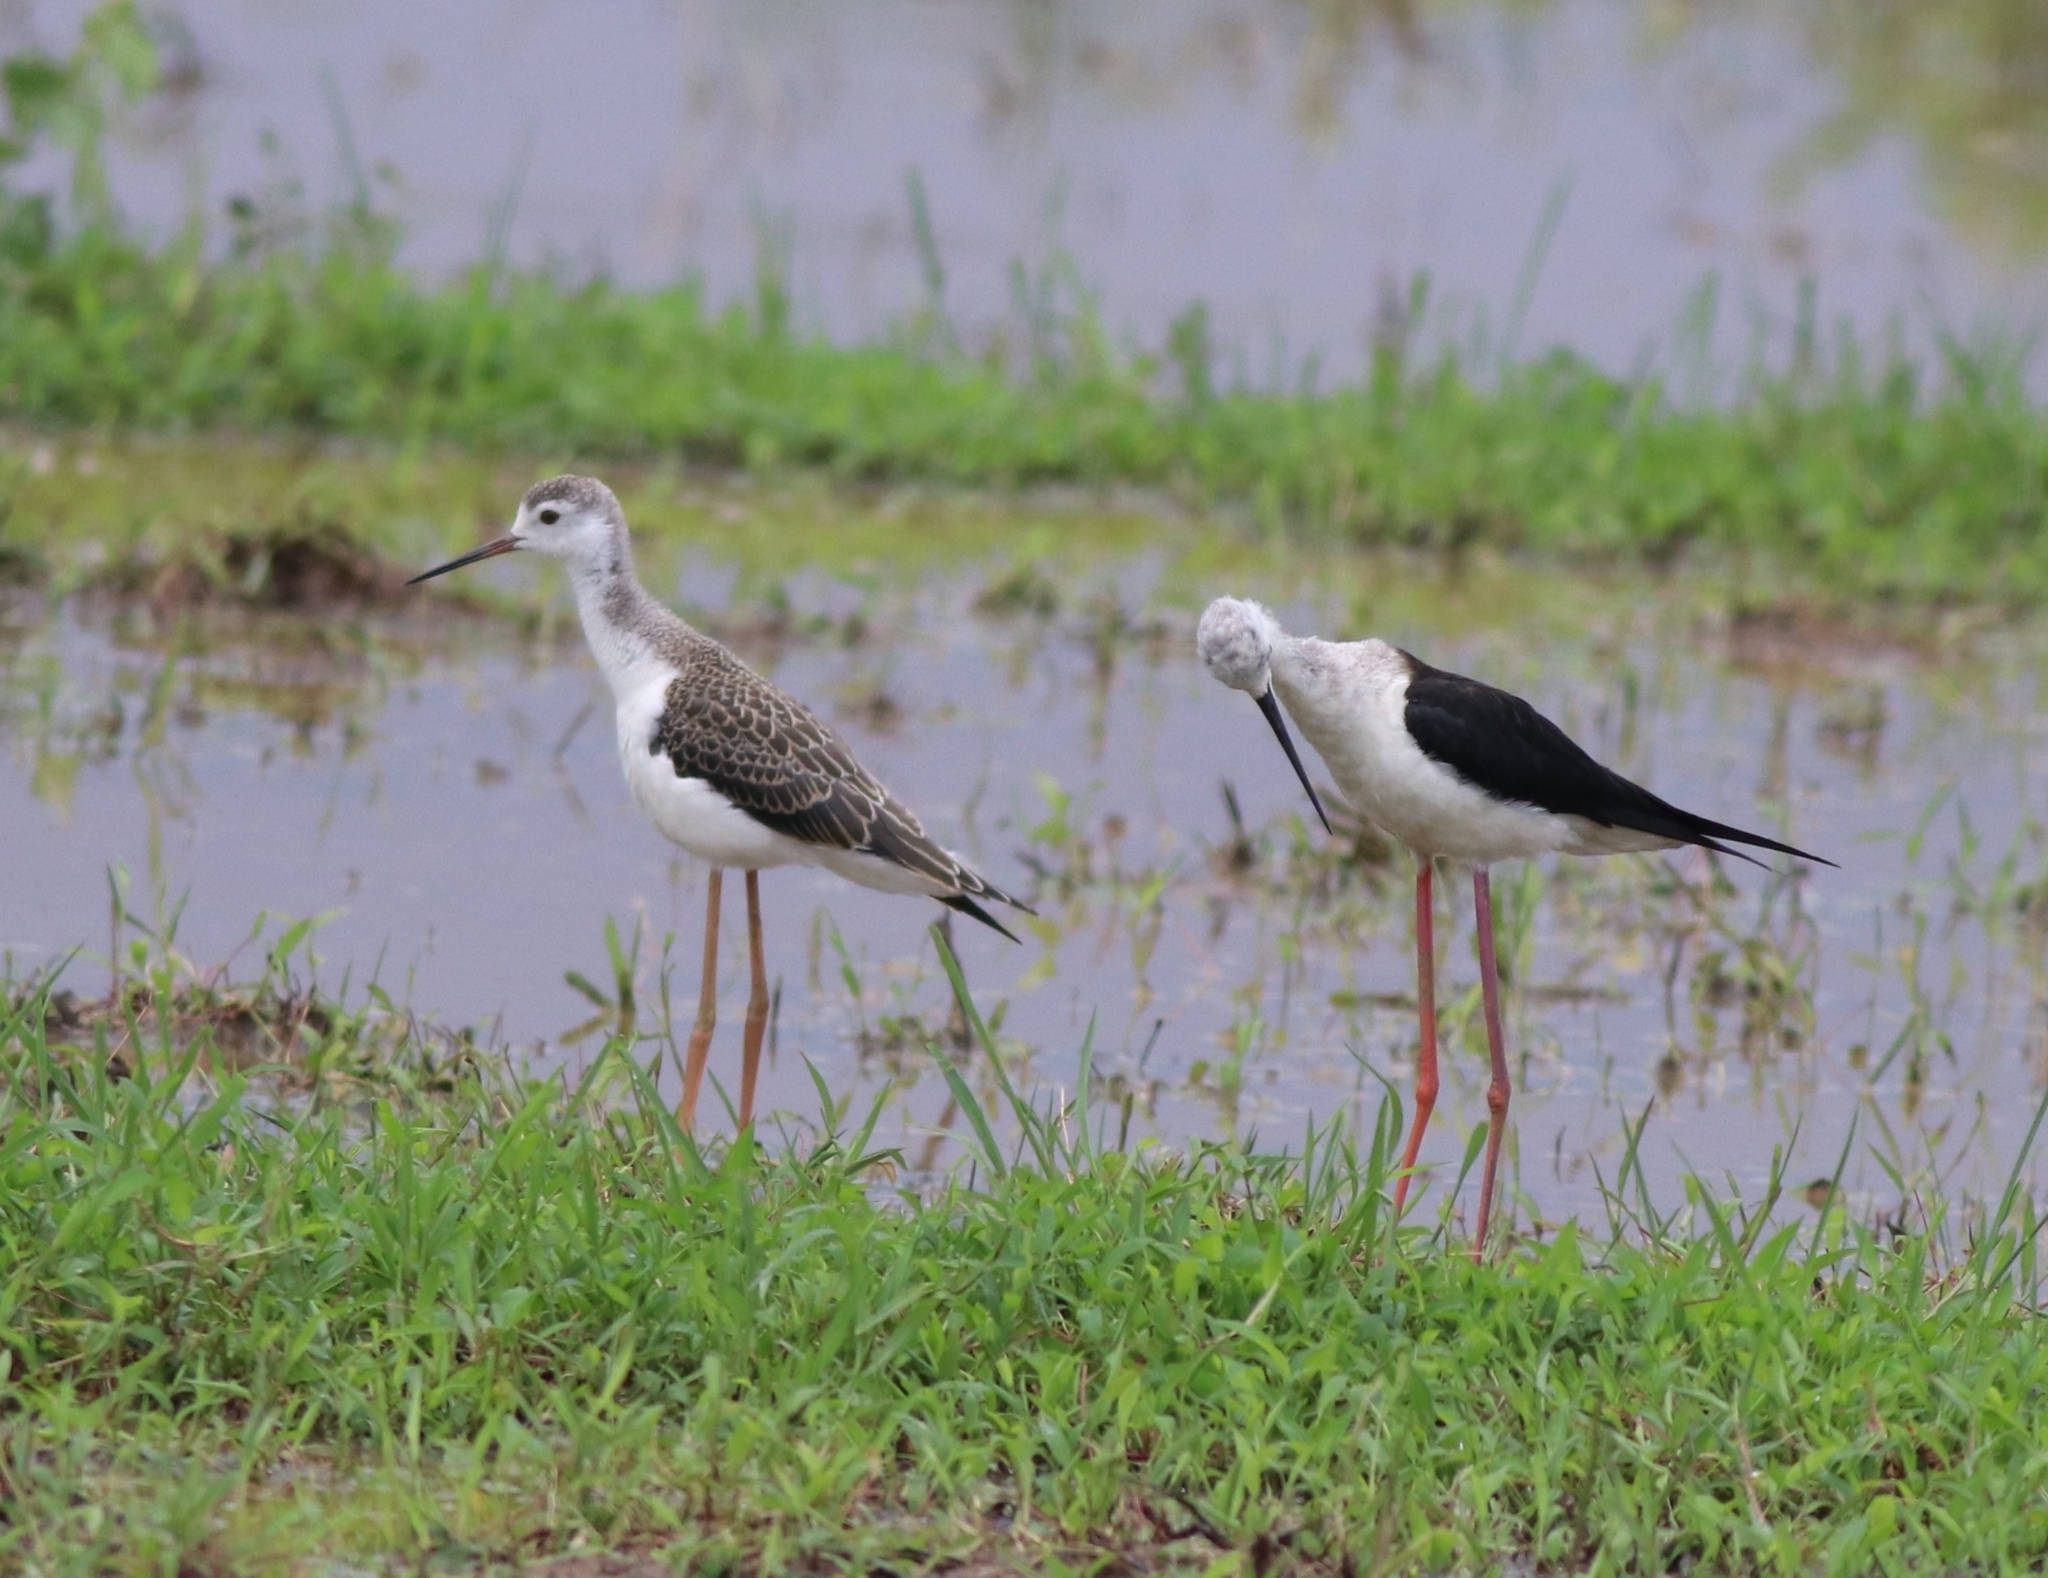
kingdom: Animalia
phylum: Chordata
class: Aves
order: Charadriiformes
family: Recurvirostridae
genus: Himantopus
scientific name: Himantopus himantopus
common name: Black-winged stilt
